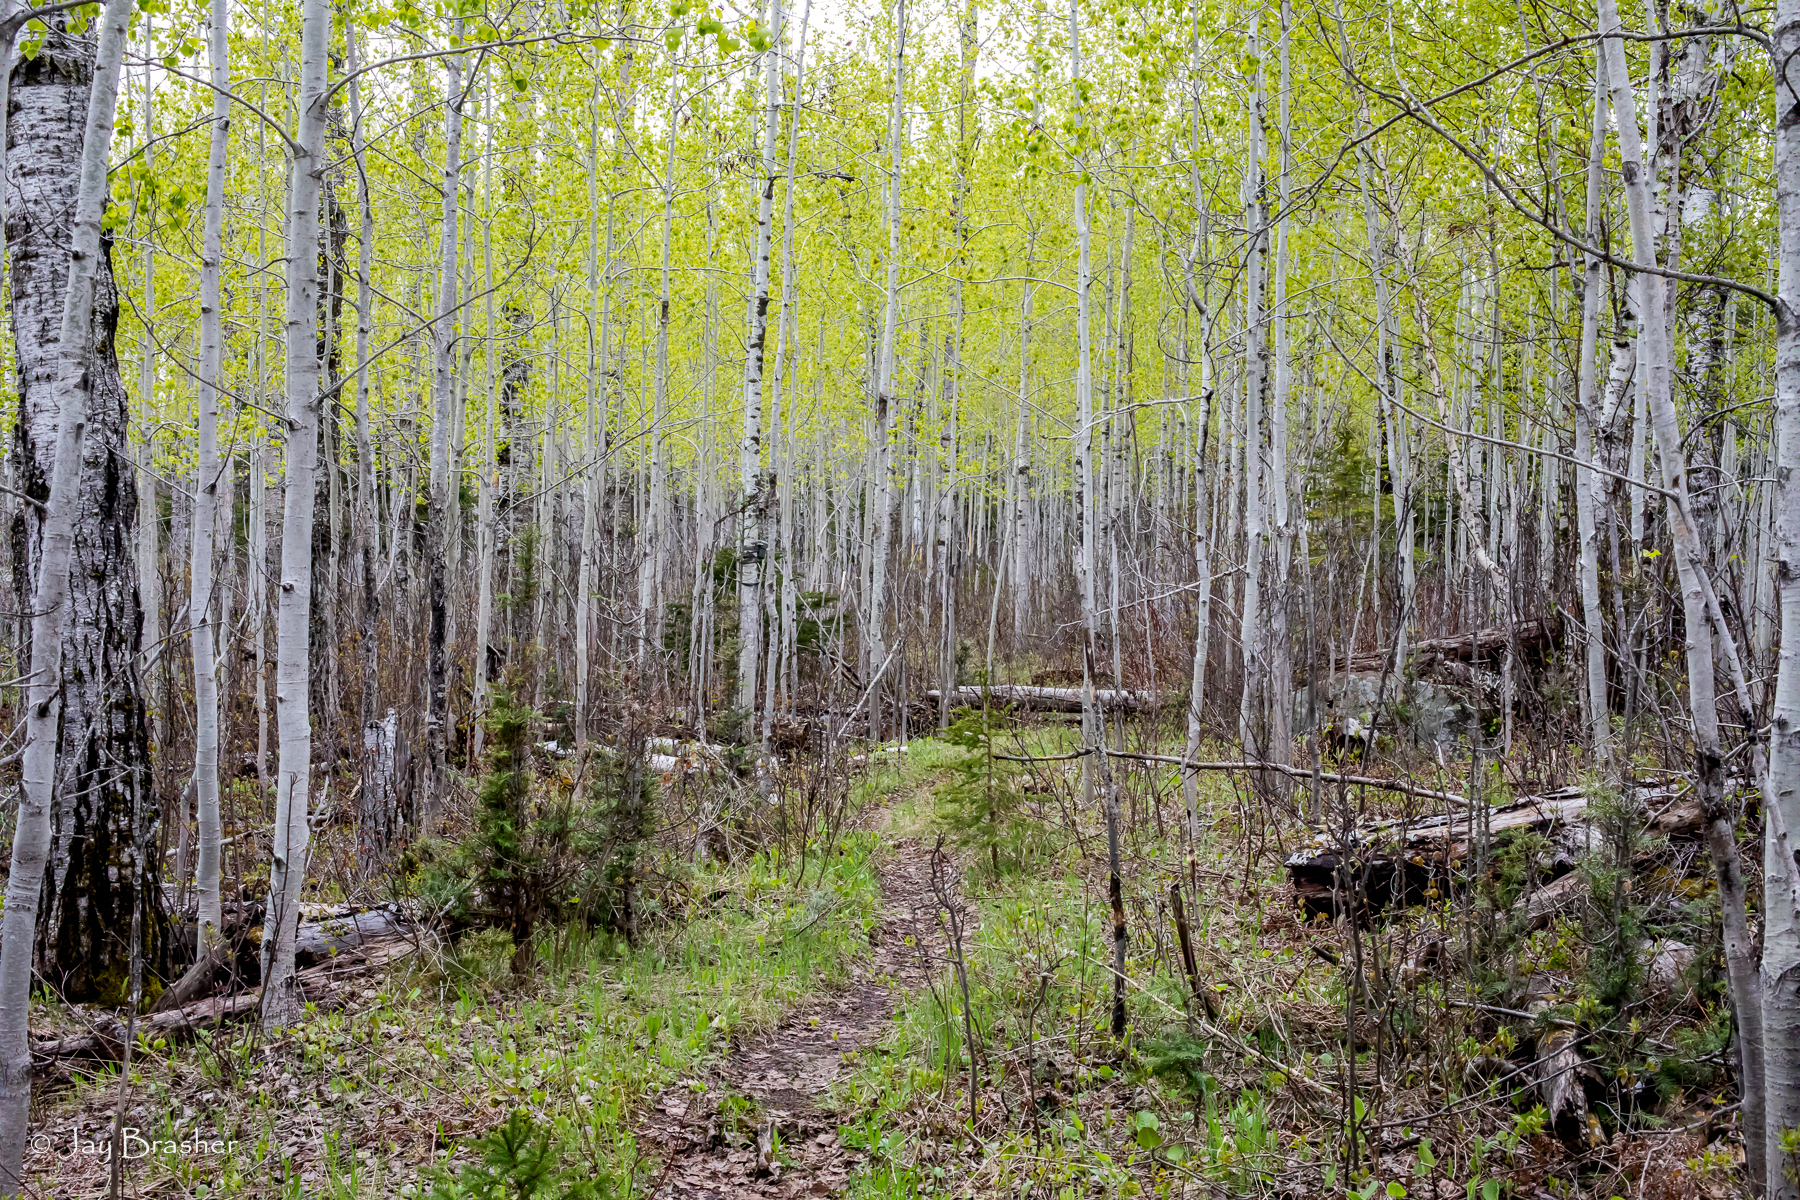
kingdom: Plantae
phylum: Tracheophyta
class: Magnoliopsida
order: Malpighiales
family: Salicaceae
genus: Populus
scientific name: Populus tremuloides
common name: Quaking aspen
